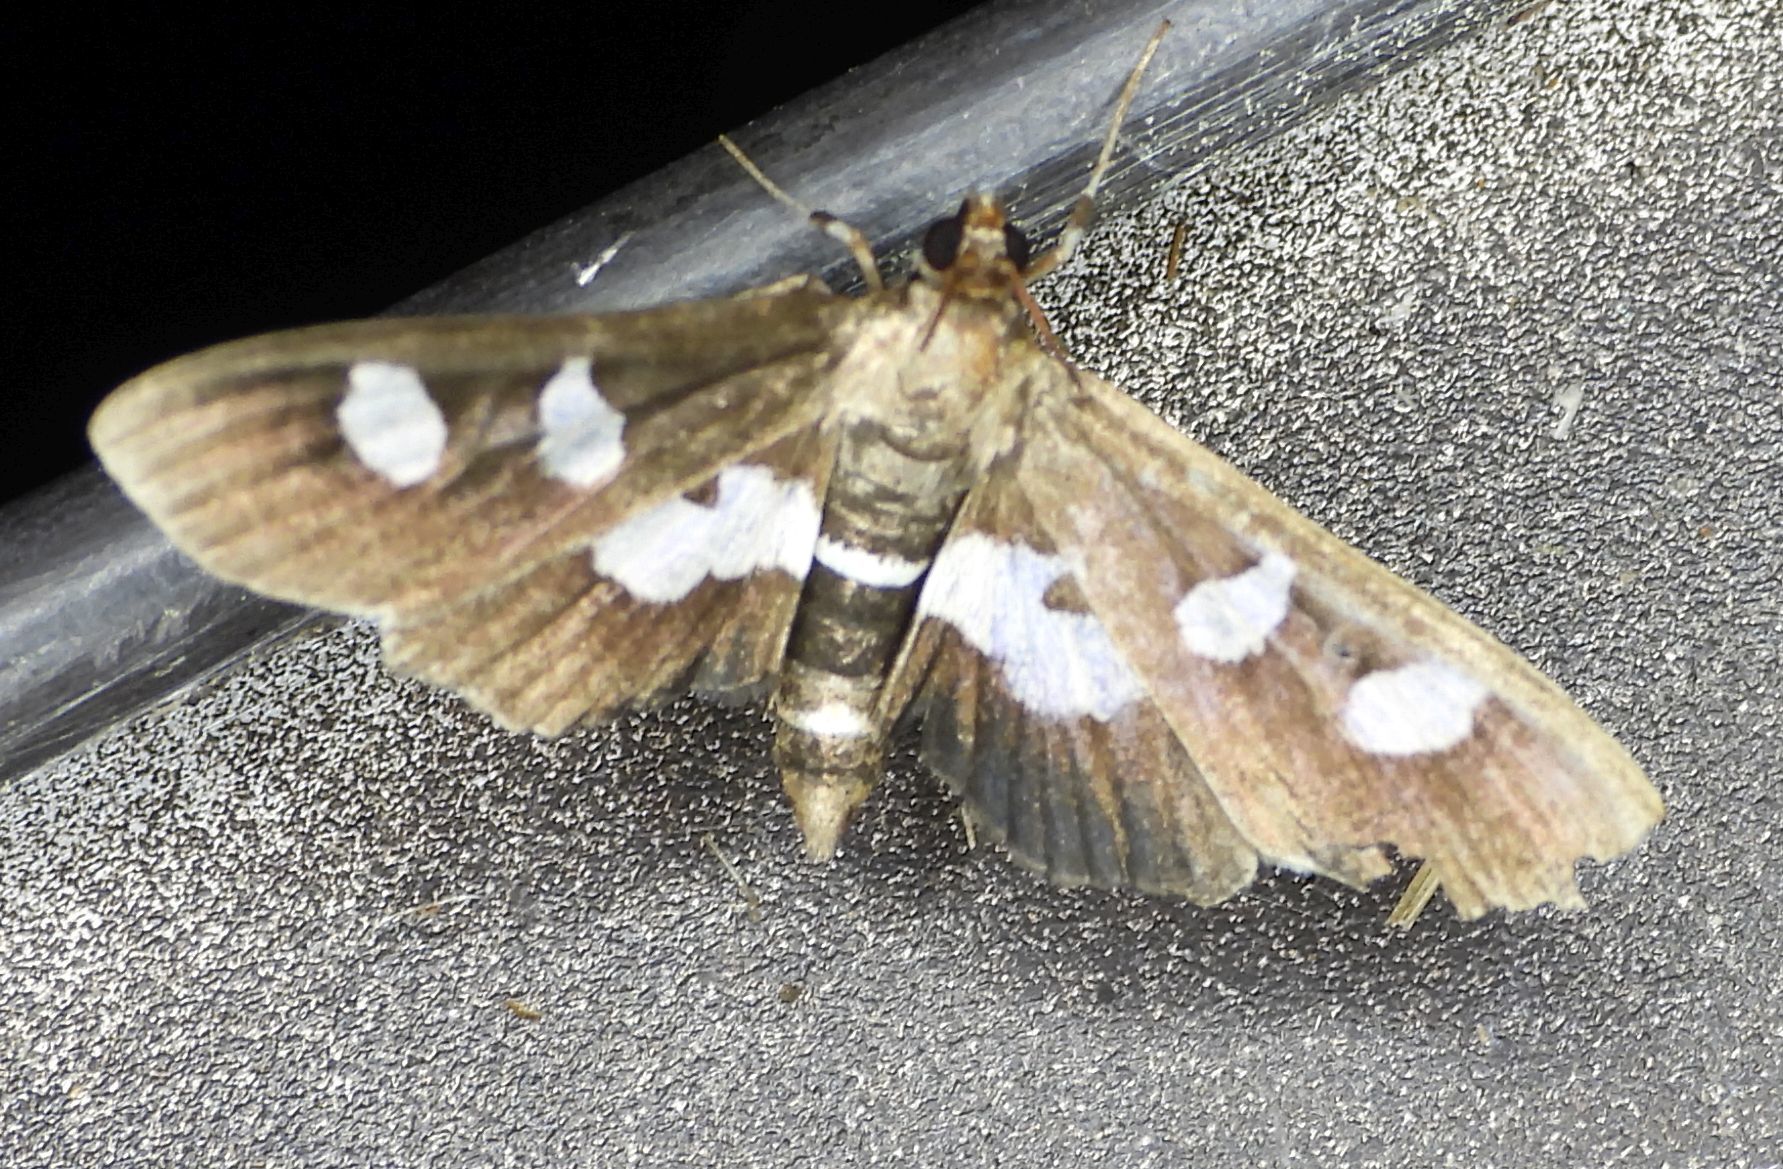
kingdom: Animalia
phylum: Arthropoda
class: Insecta
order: Lepidoptera
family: Crambidae
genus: Desmia
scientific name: Desmia
